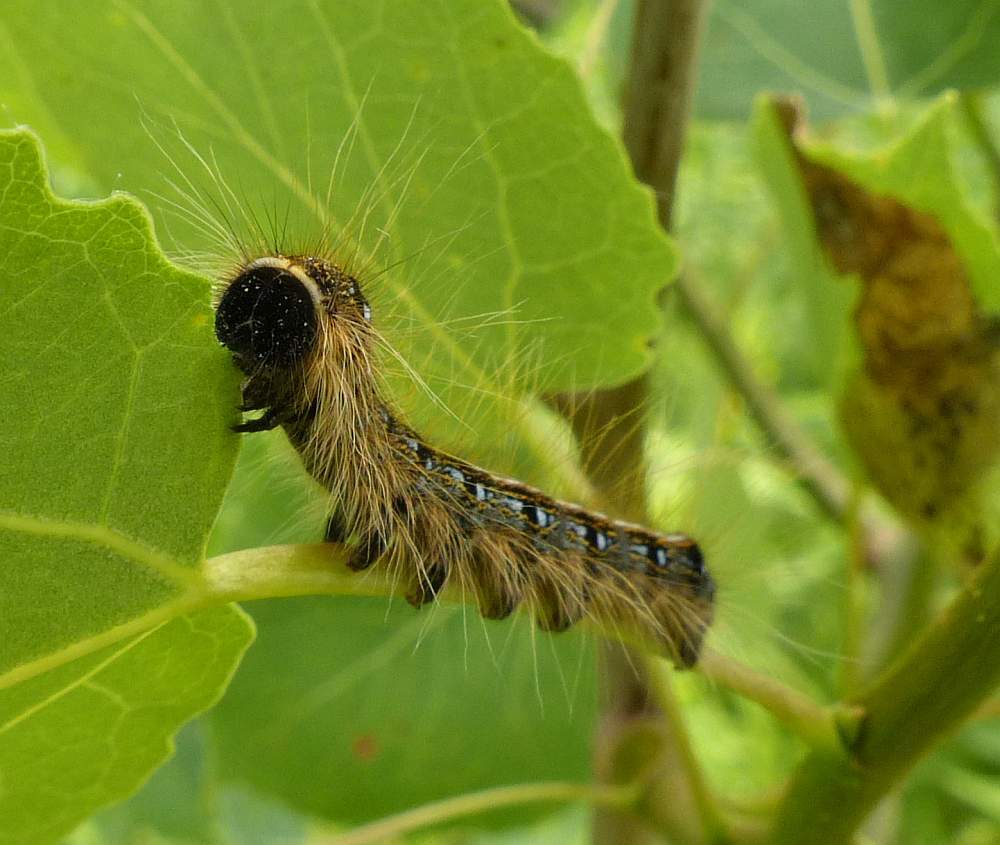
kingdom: Animalia
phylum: Arthropoda
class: Insecta
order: Lepidoptera
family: Lasiocampidae
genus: Malacosoma
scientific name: Malacosoma americana
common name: Eastern tent caterpillar moth
